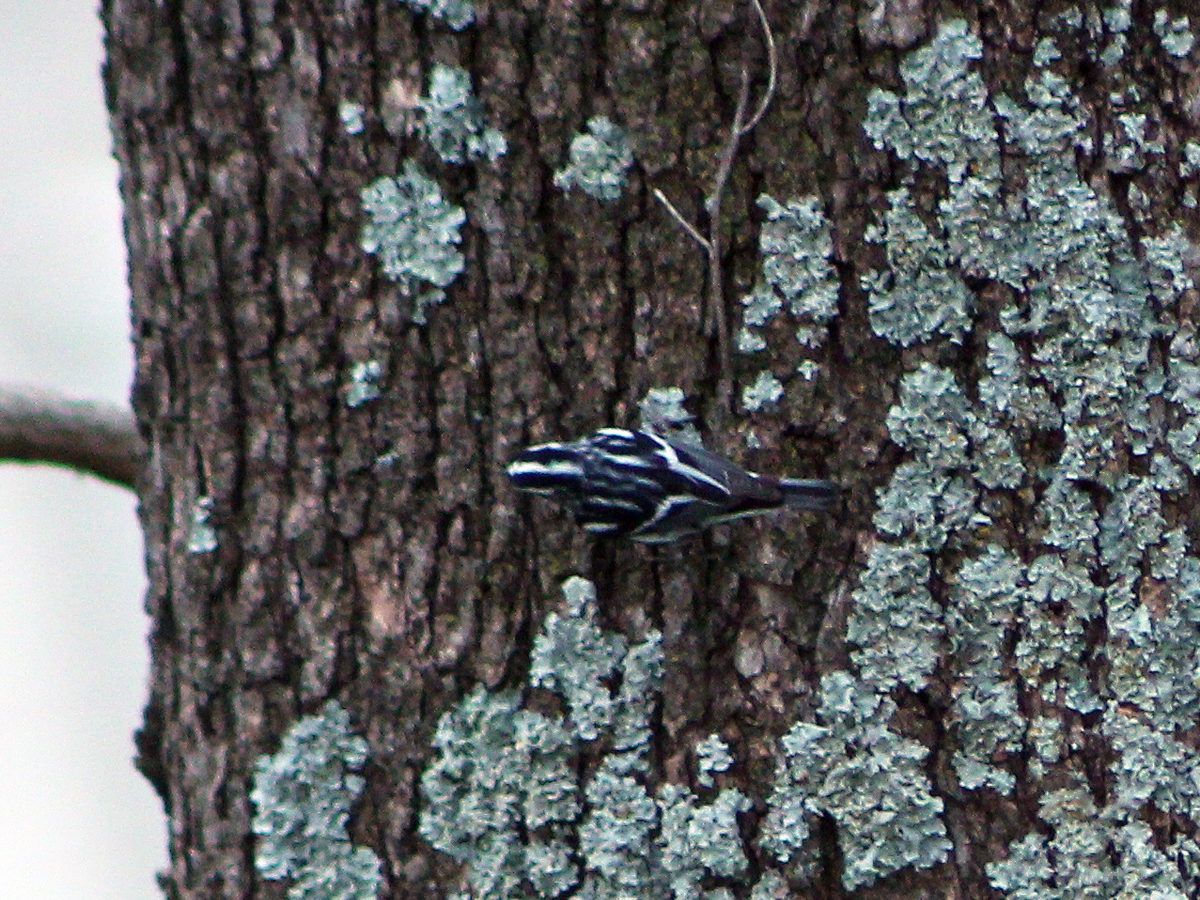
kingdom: Animalia
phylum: Chordata
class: Aves
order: Passeriformes
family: Parulidae
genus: Mniotilta
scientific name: Mniotilta varia
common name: Black-and-white warbler
